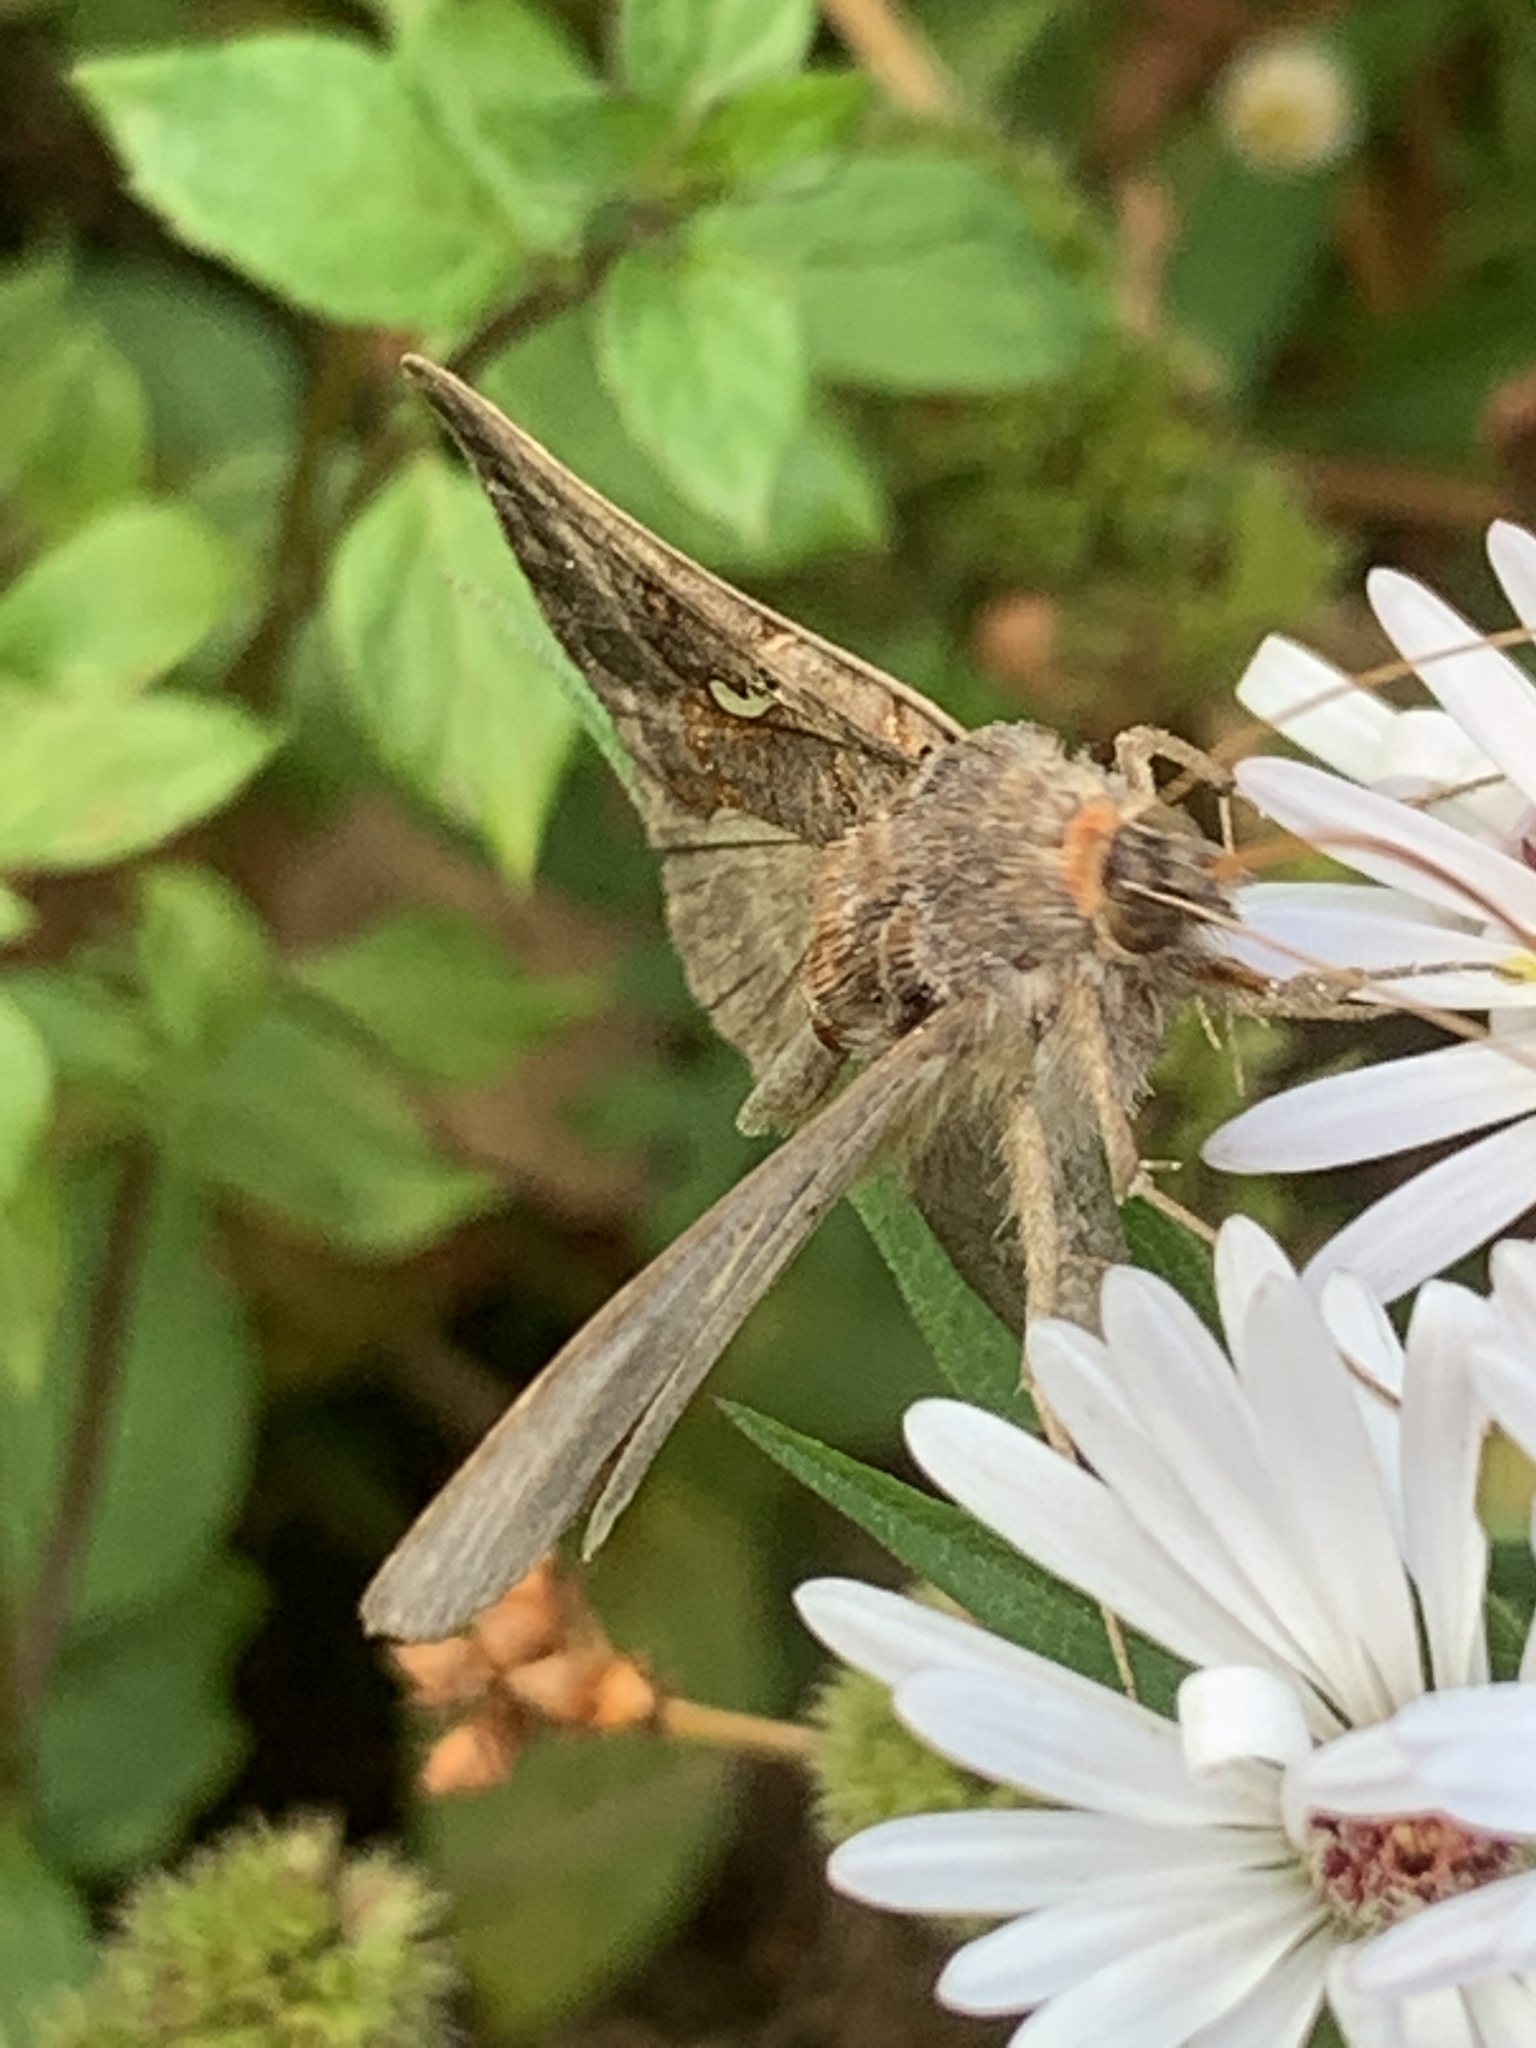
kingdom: Animalia
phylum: Arthropoda
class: Insecta
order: Lepidoptera
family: Noctuidae
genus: Autographa
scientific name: Autographa precationis
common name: Common looper moth
